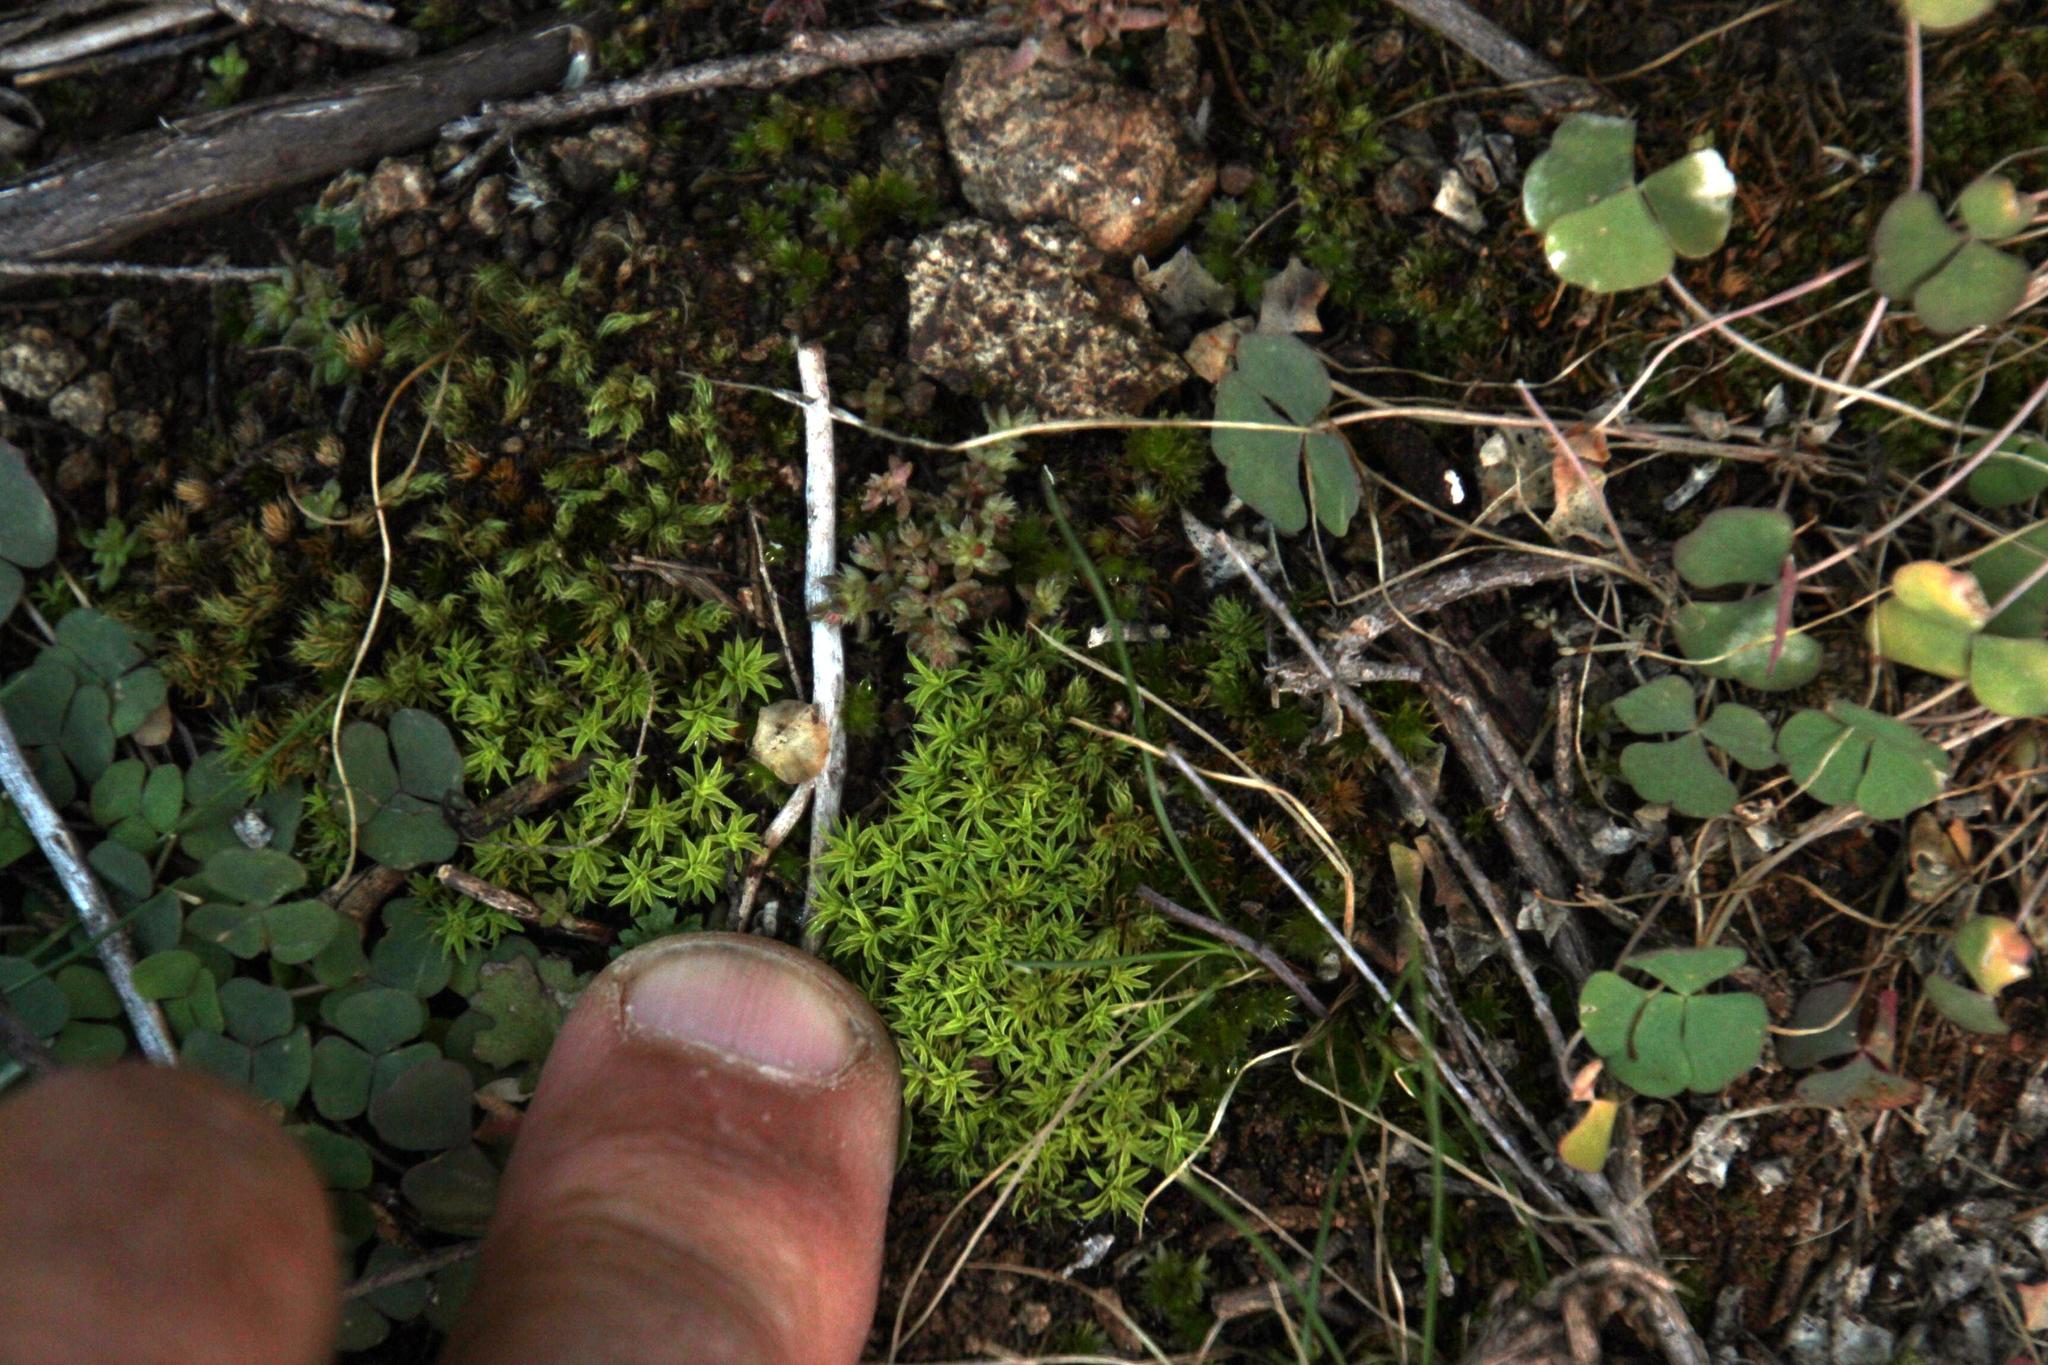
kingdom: Plantae
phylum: Bryophyta
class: Bryopsida
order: Pottiales
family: Pottiaceae
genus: Pseudocrossidium
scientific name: Pseudocrossidium crinitum
